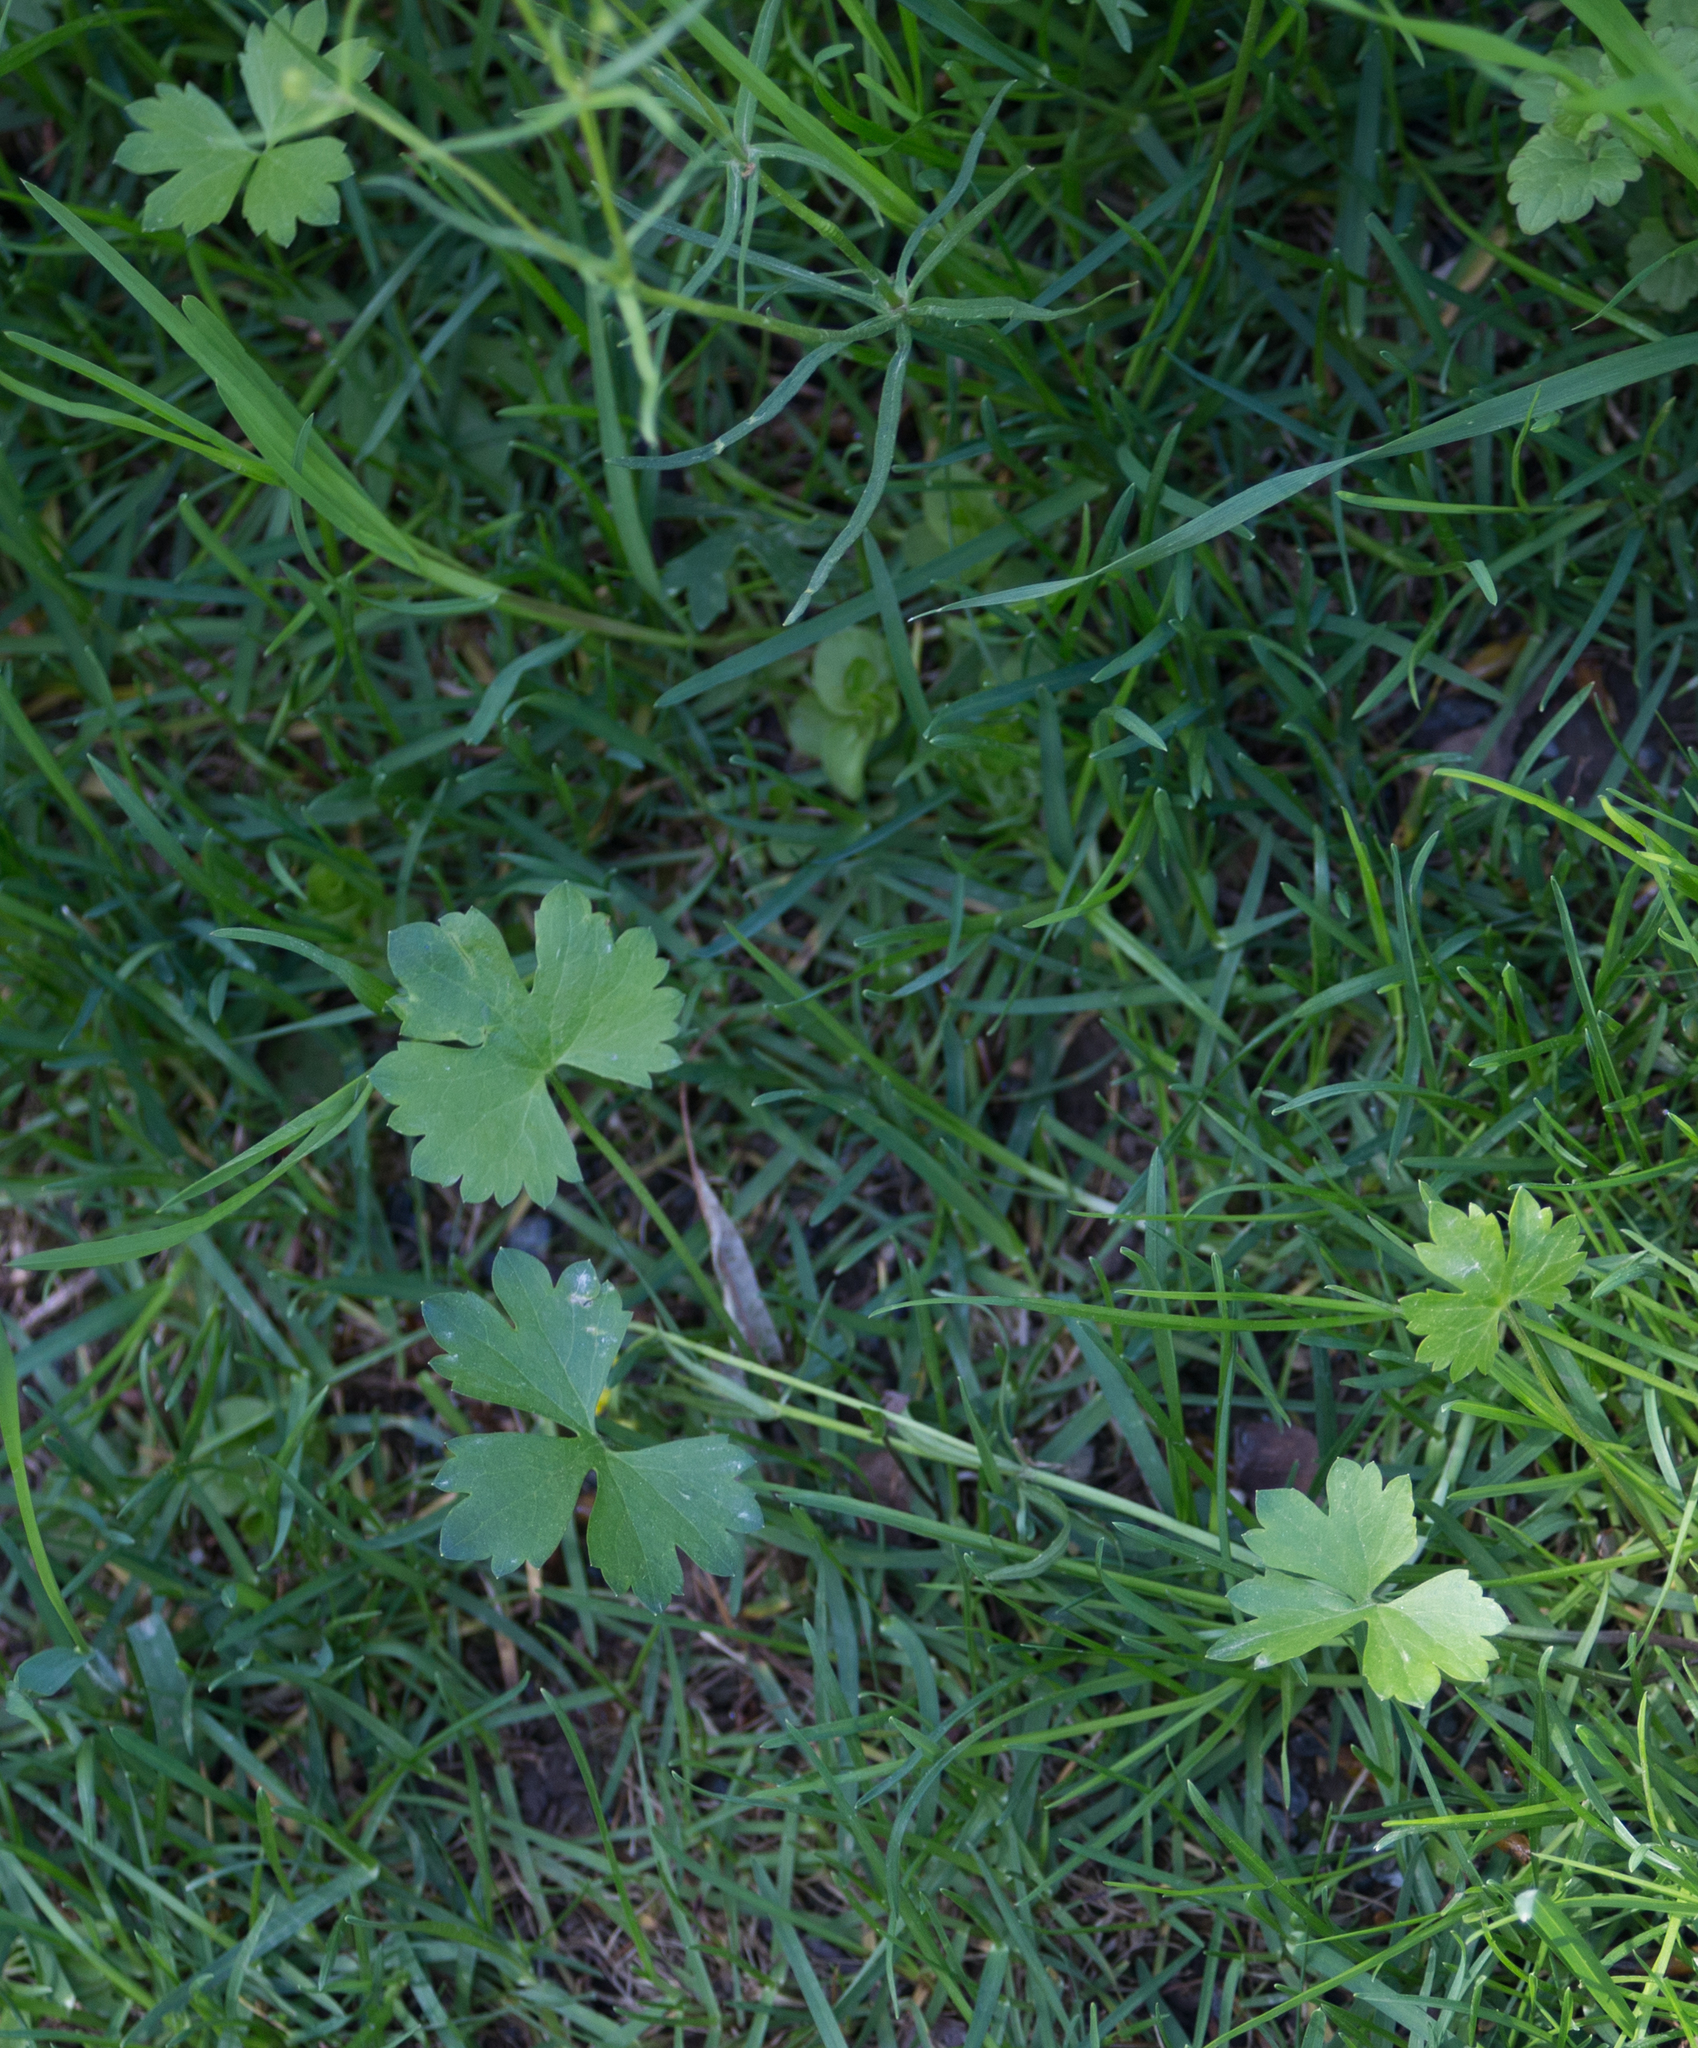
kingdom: Plantae
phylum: Tracheophyta
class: Magnoliopsida
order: Ranunculales
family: Ranunculaceae
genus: Ranunculus
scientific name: Ranunculus auricomus
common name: Goldilocks buttercup
